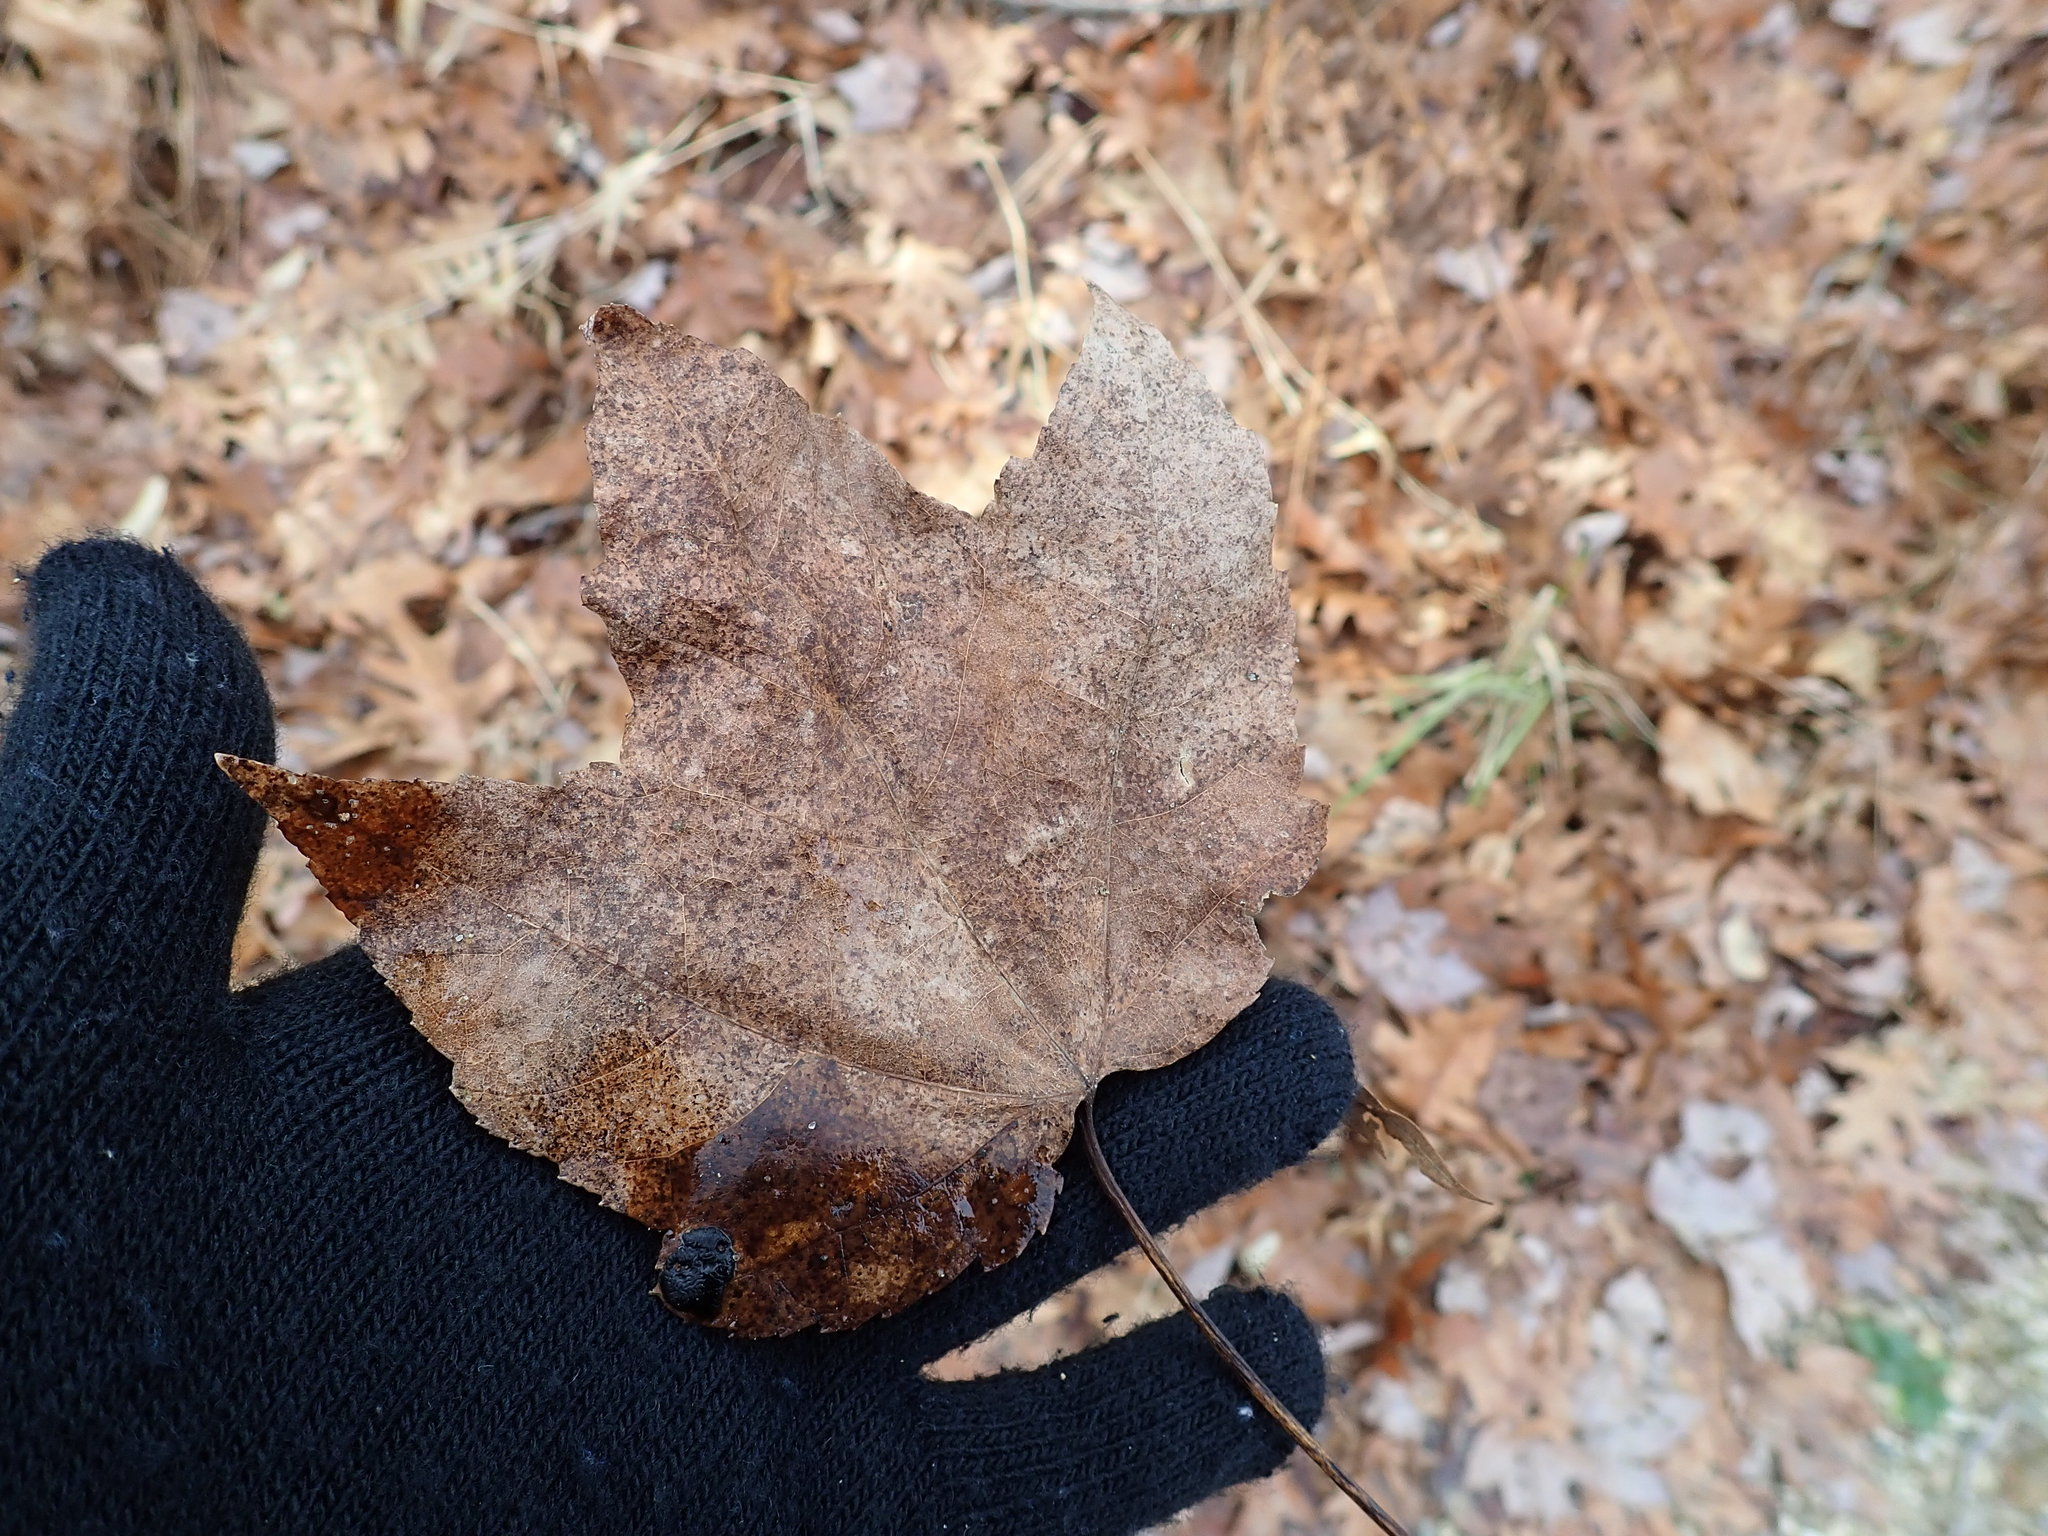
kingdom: Plantae
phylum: Tracheophyta
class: Magnoliopsida
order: Sapindales
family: Sapindaceae
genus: Acer
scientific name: Acer rubrum
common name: Red maple
